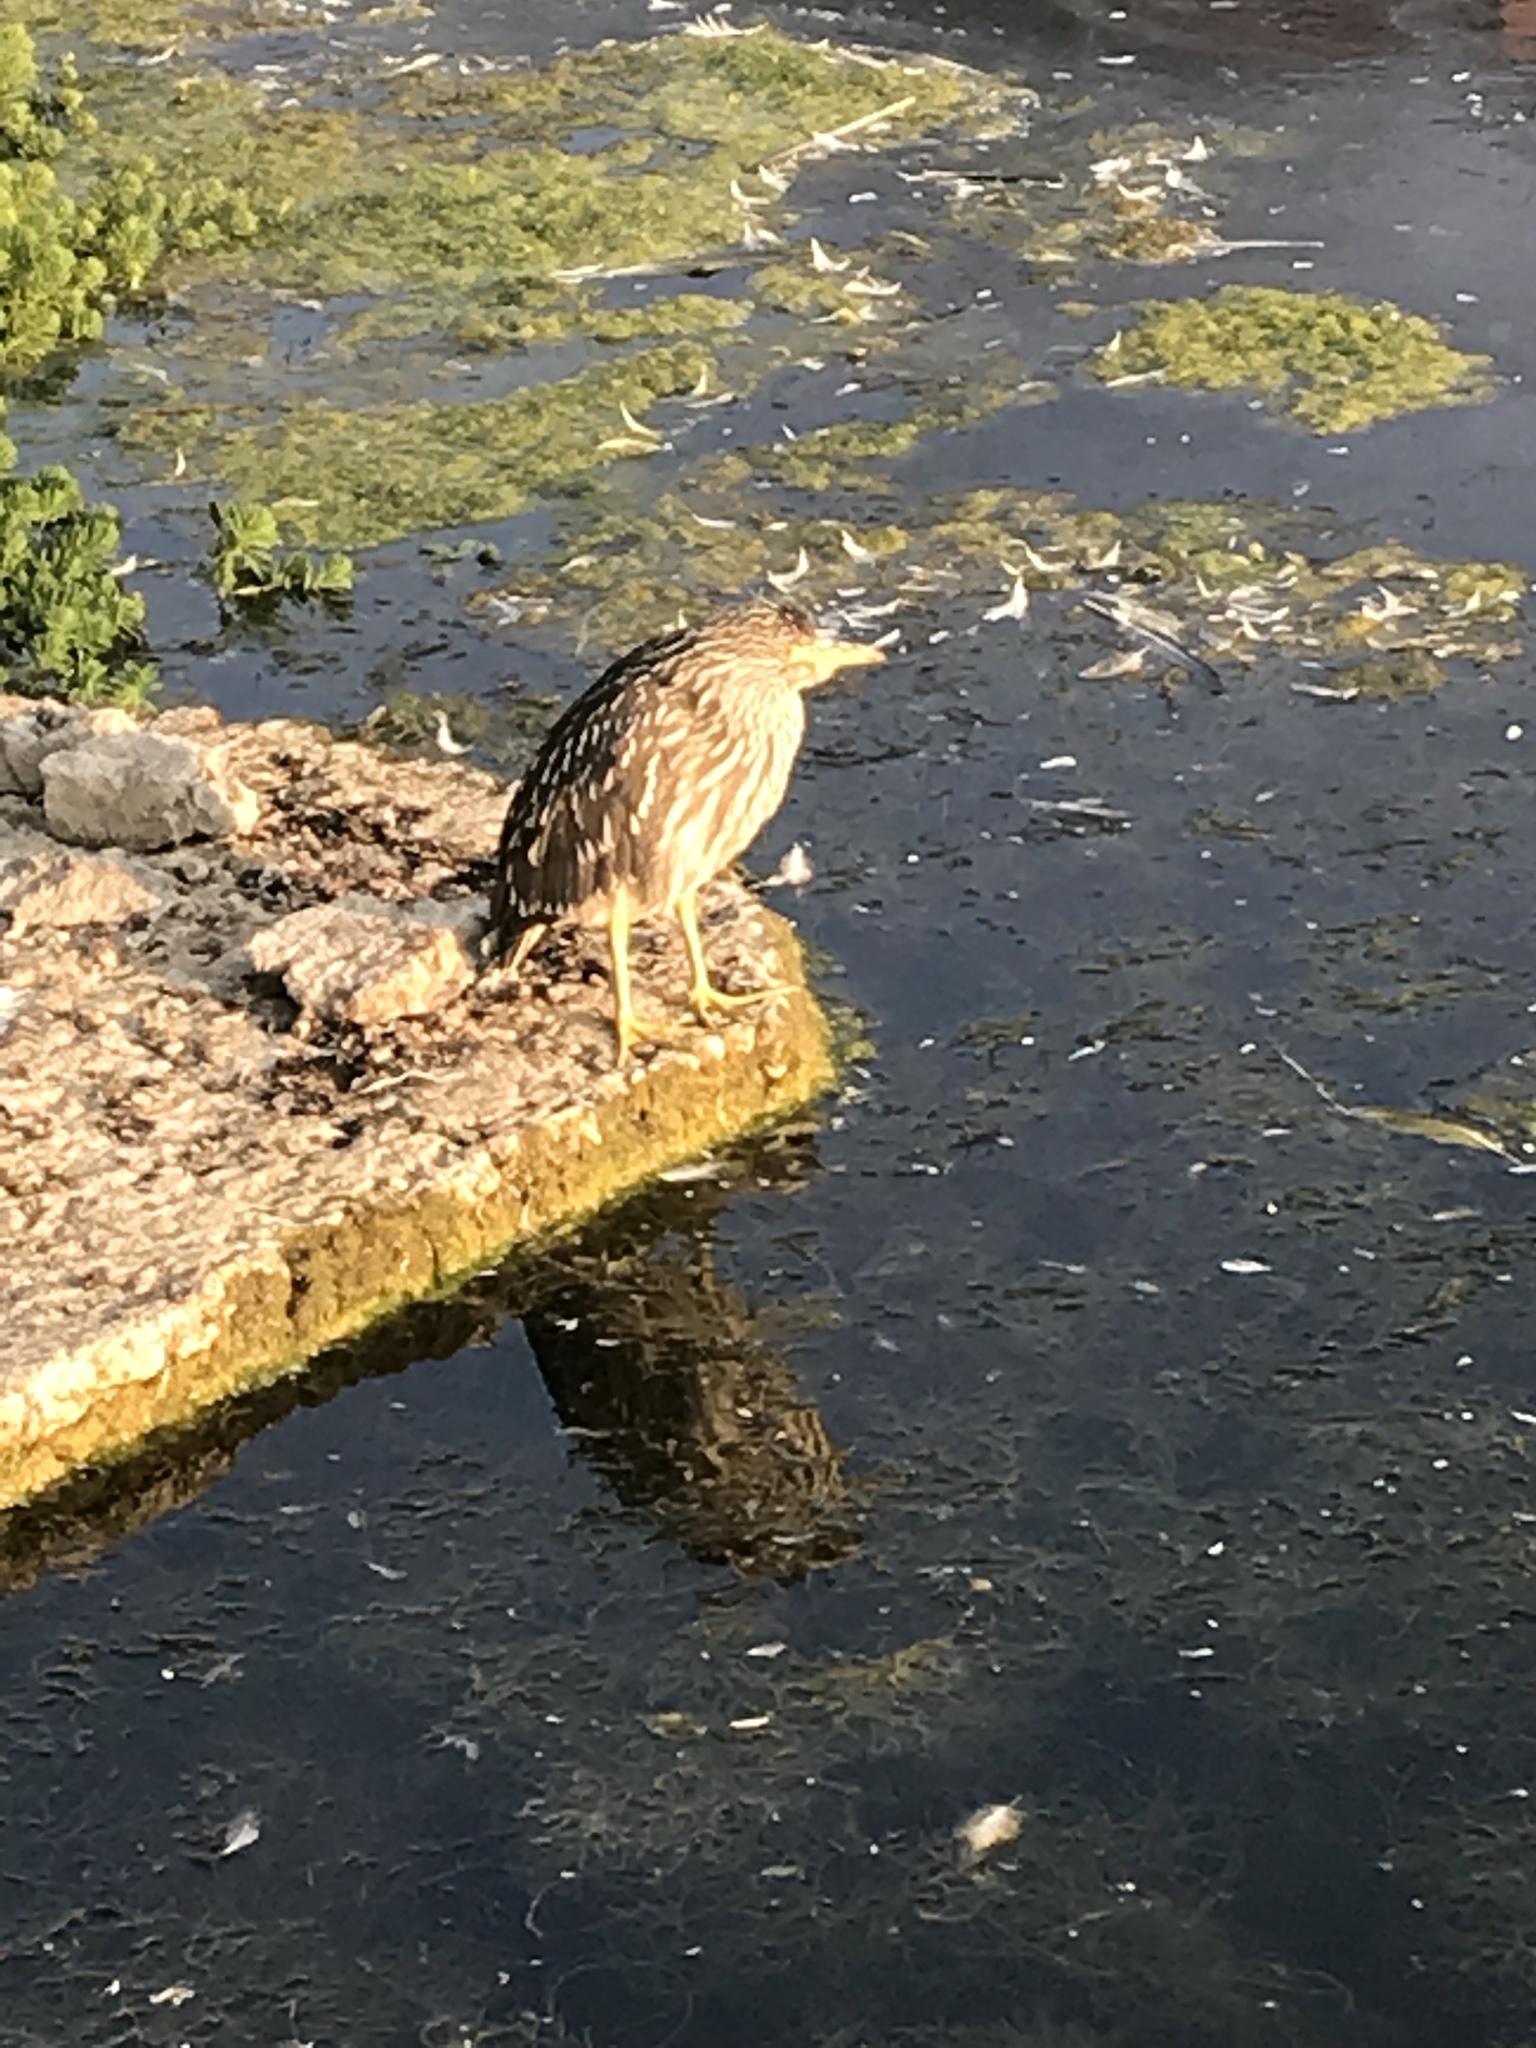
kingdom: Animalia
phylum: Chordata
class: Aves
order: Pelecaniformes
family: Ardeidae
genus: Nycticorax
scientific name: Nycticorax nycticorax
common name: Black-crowned night heron
